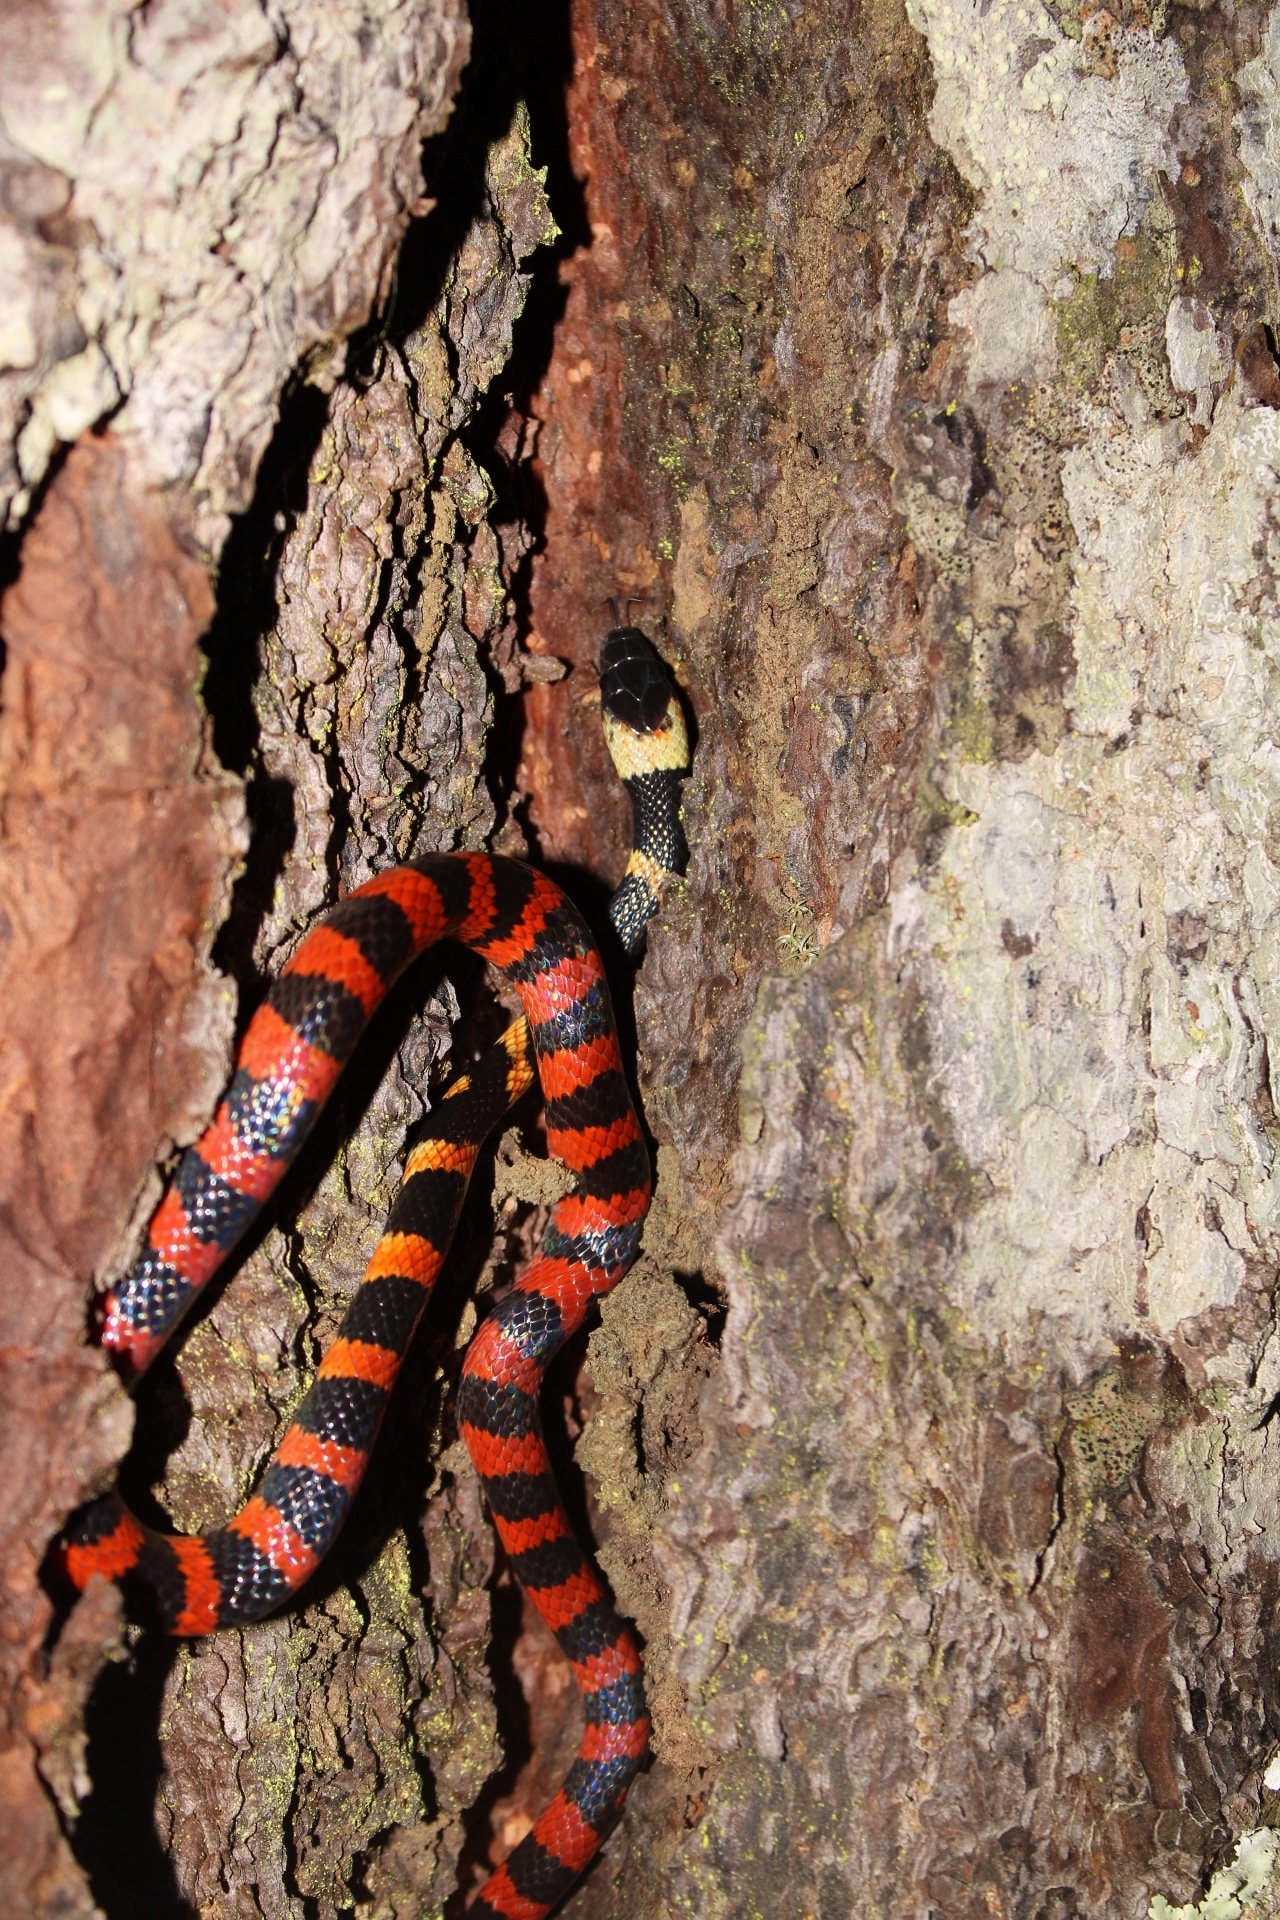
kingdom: Animalia
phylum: Chordata
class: Squamata
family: Colubridae
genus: Oxyrhopus
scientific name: Oxyrhopus petolarius
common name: Forest flame snake
